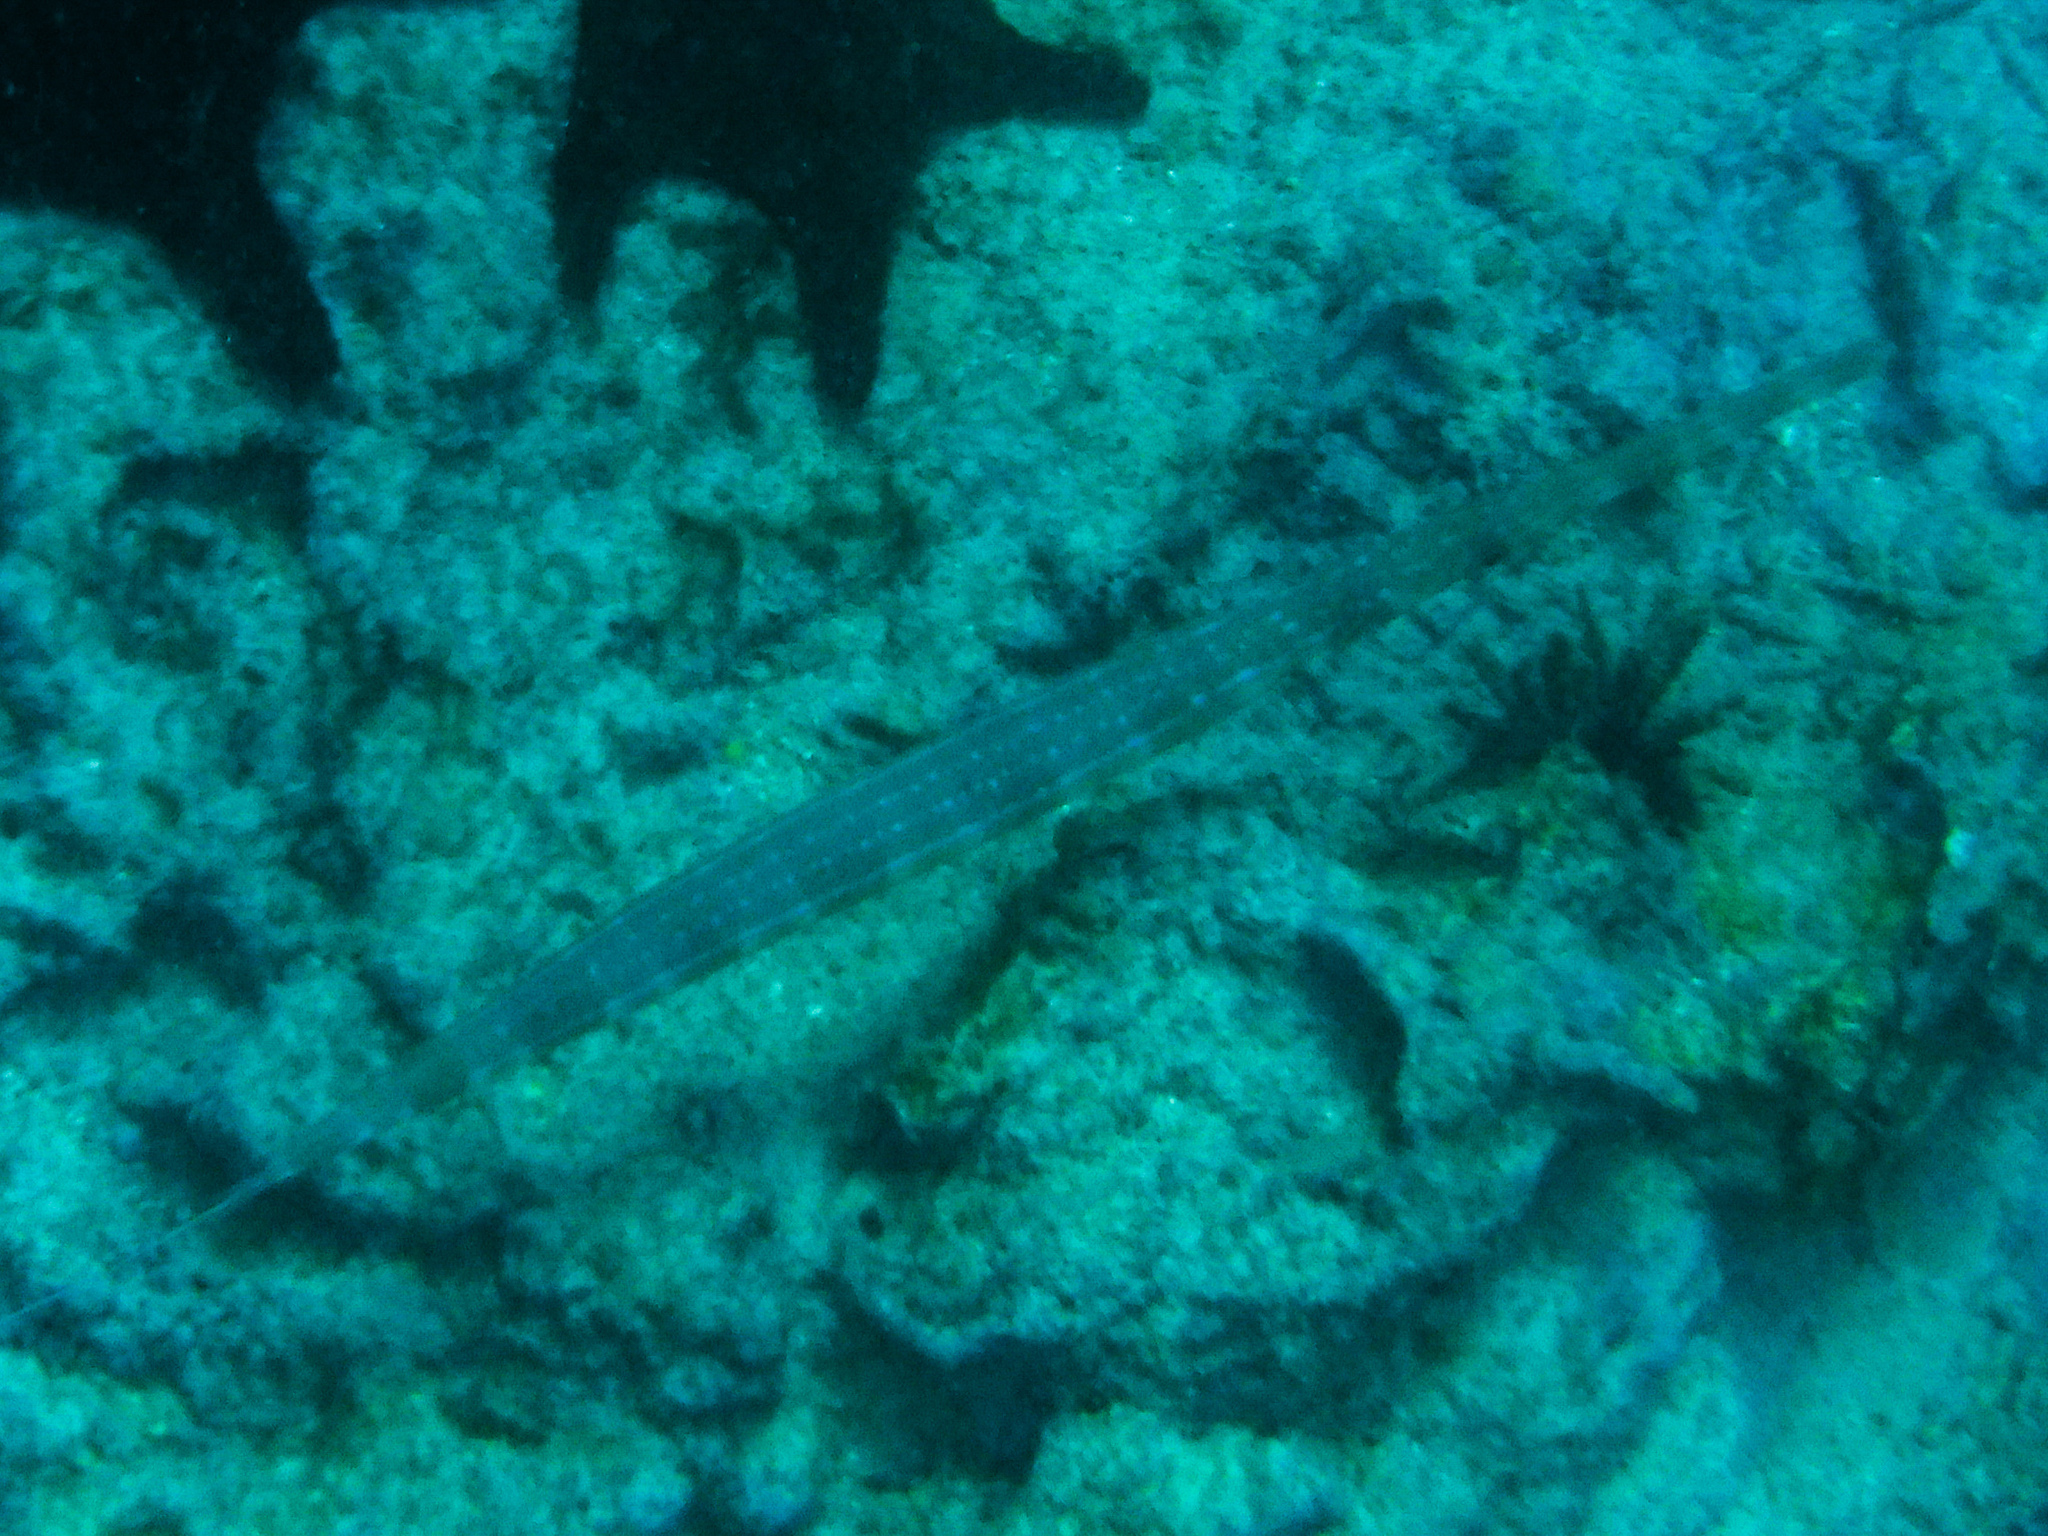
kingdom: Animalia
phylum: Chordata
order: Syngnathiformes
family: Fistulariidae
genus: Fistularia
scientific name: Fistularia commersonii
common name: Bluespotted cornetfish
